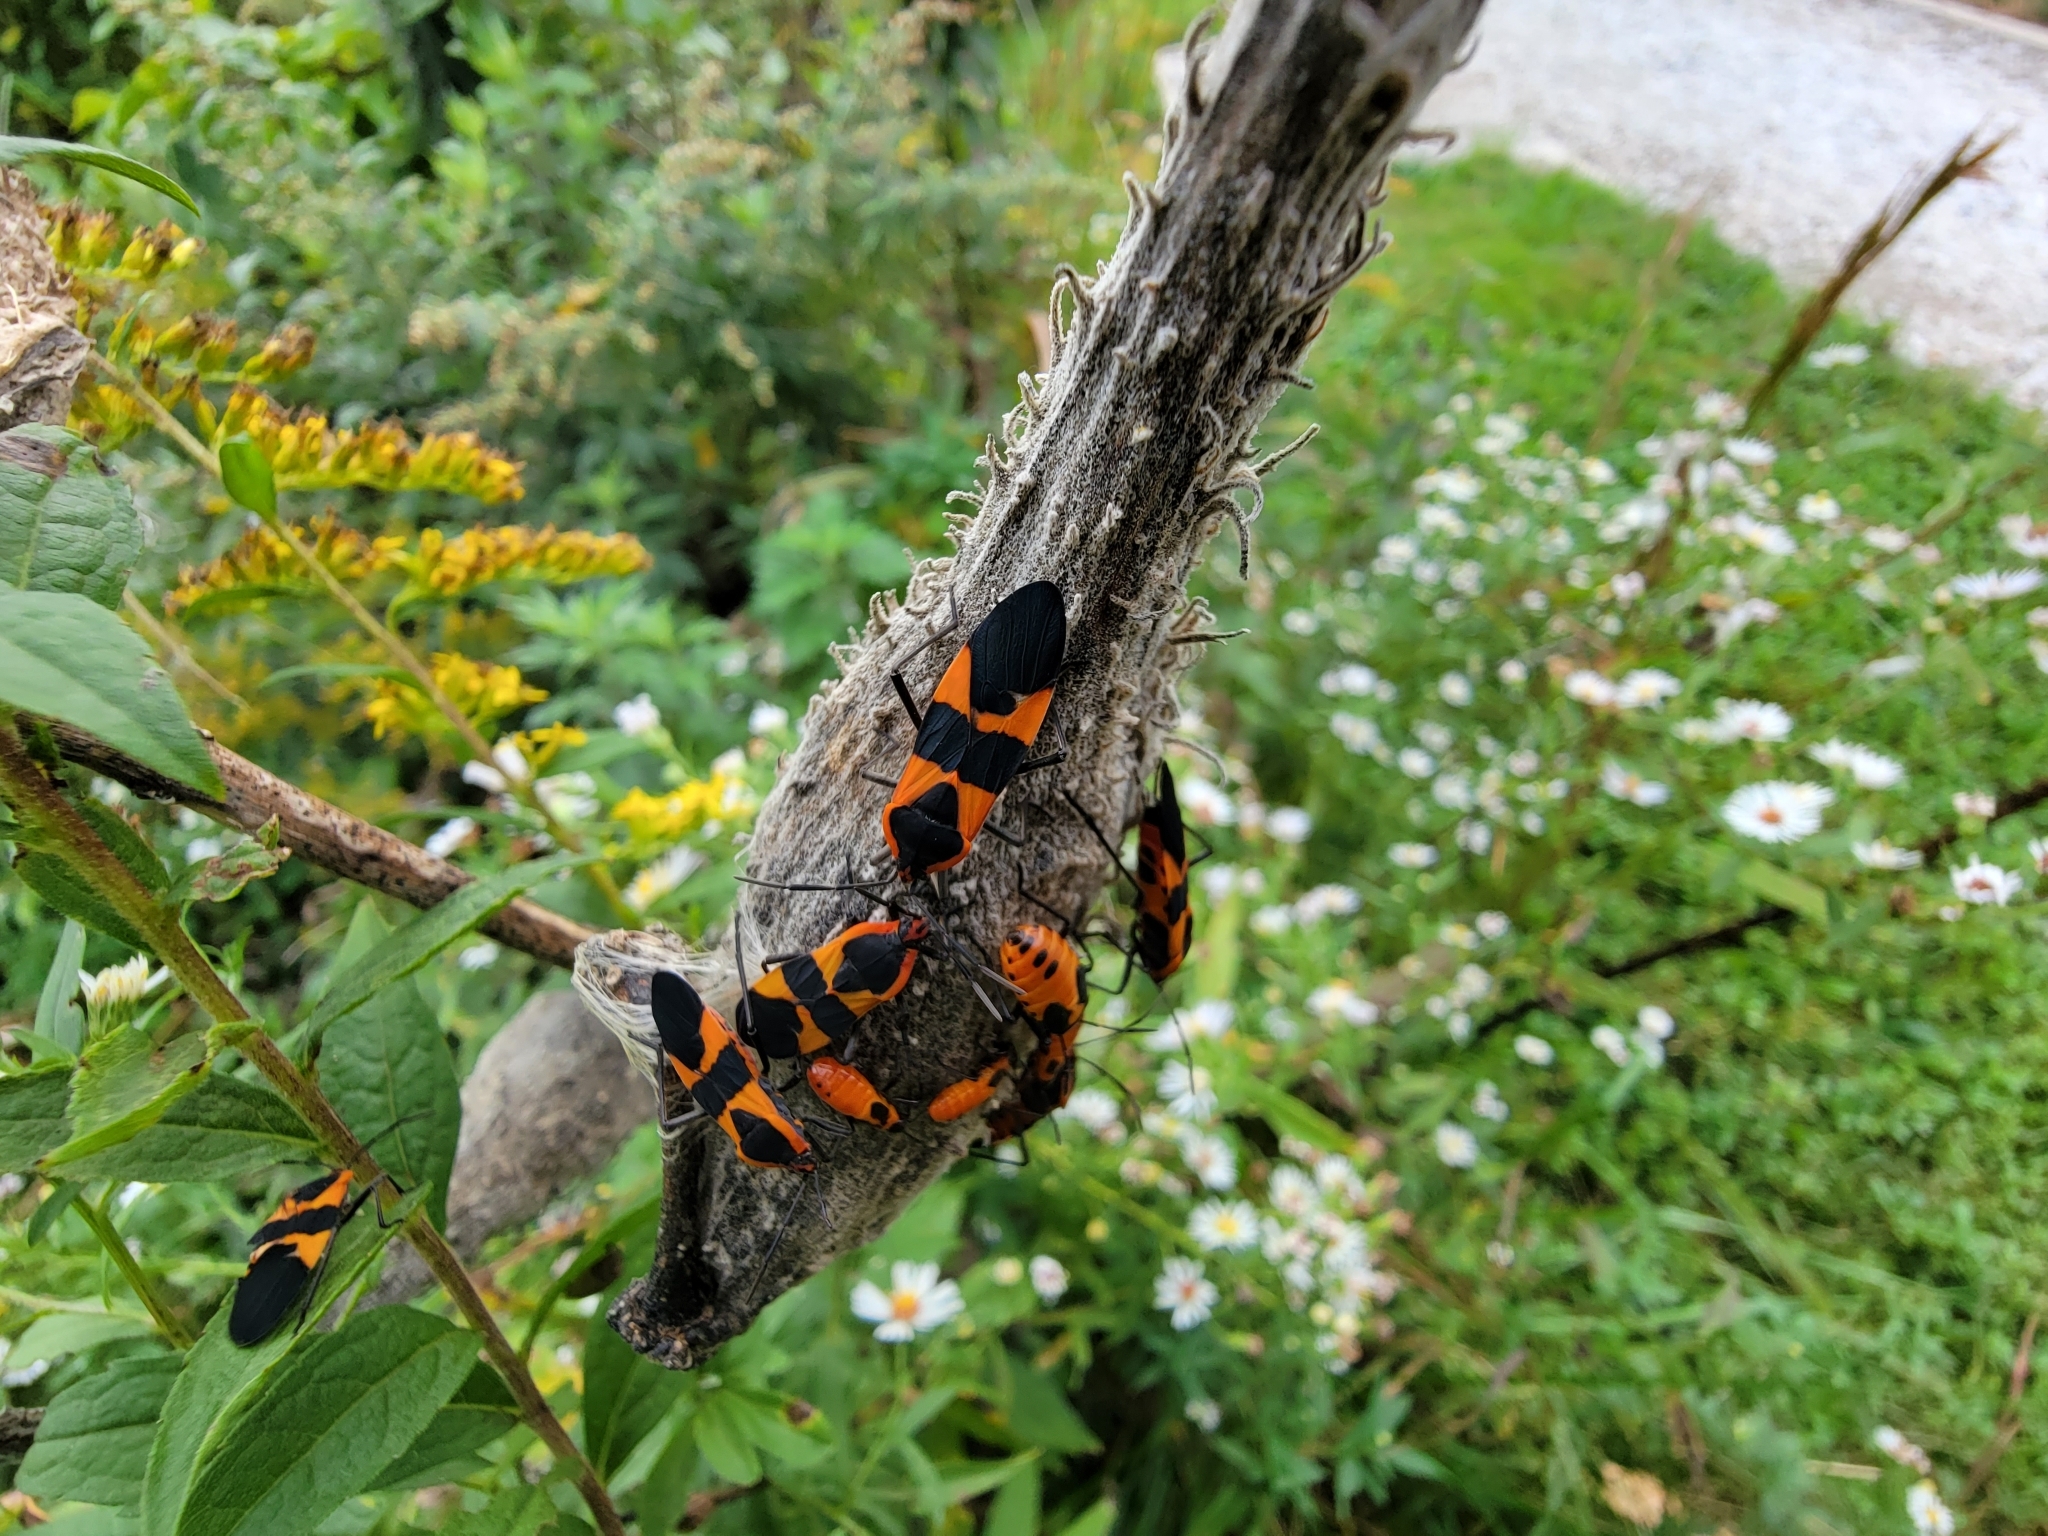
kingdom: Animalia
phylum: Arthropoda
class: Insecta
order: Hemiptera
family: Lygaeidae
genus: Oncopeltus
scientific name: Oncopeltus fasciatus
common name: Large milkweed bug
